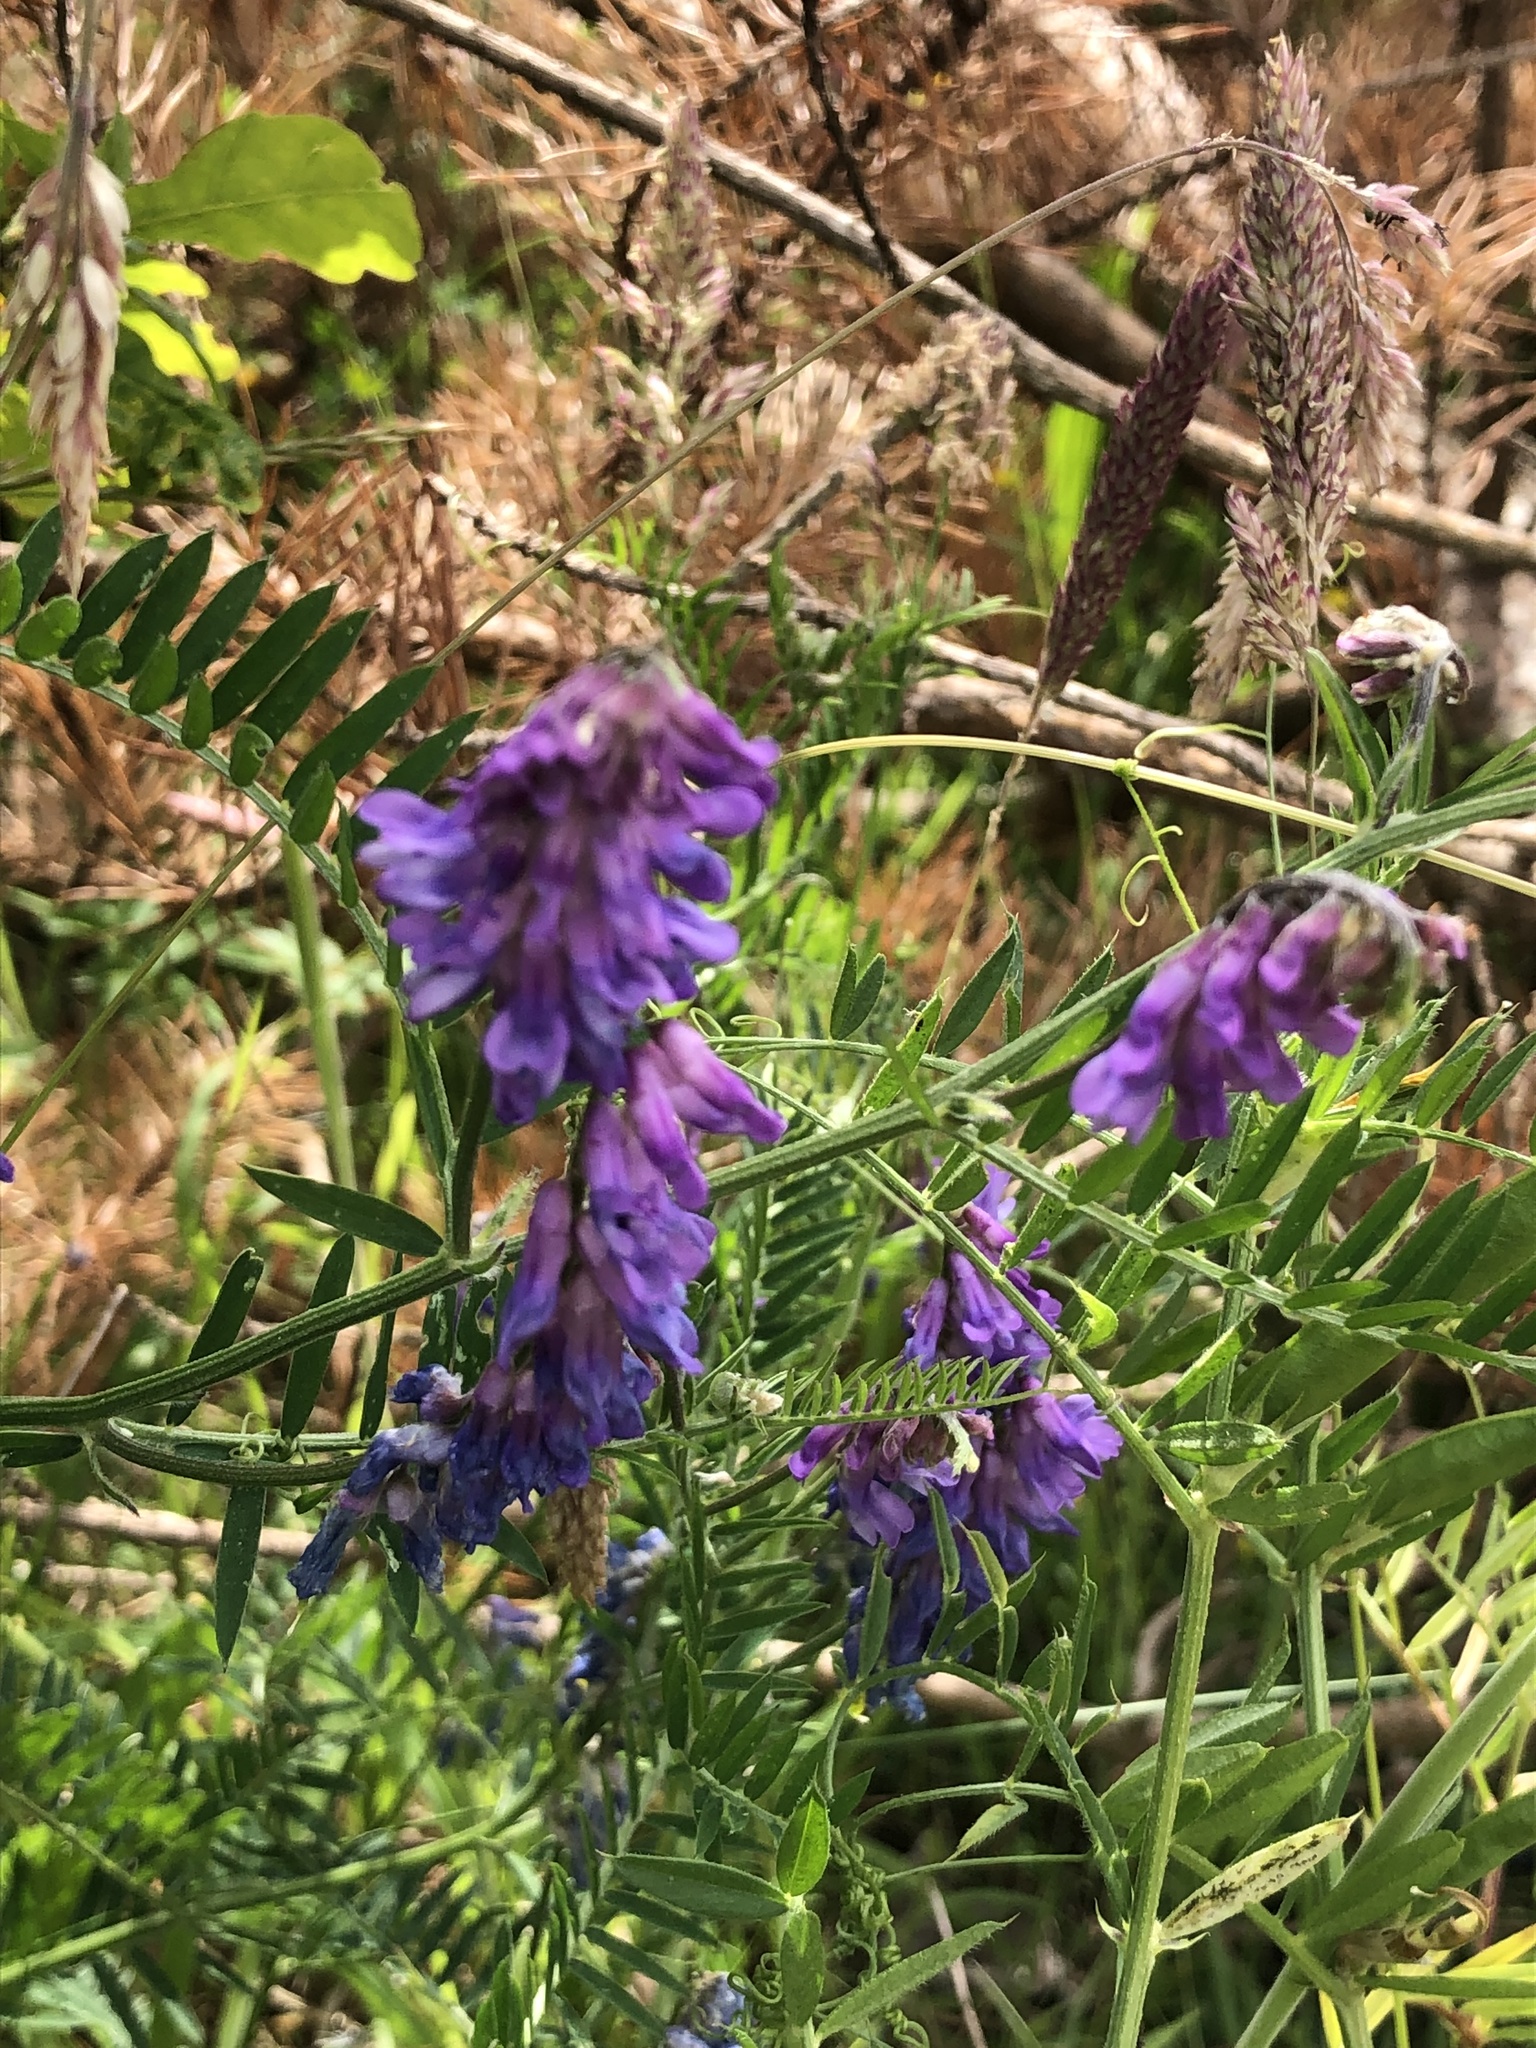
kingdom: Plantae
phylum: Tracheophyta
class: Magnoliopsida
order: Fabales
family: Fabaceae
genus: Vicia
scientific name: Vicia cracca
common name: Bird vetch
